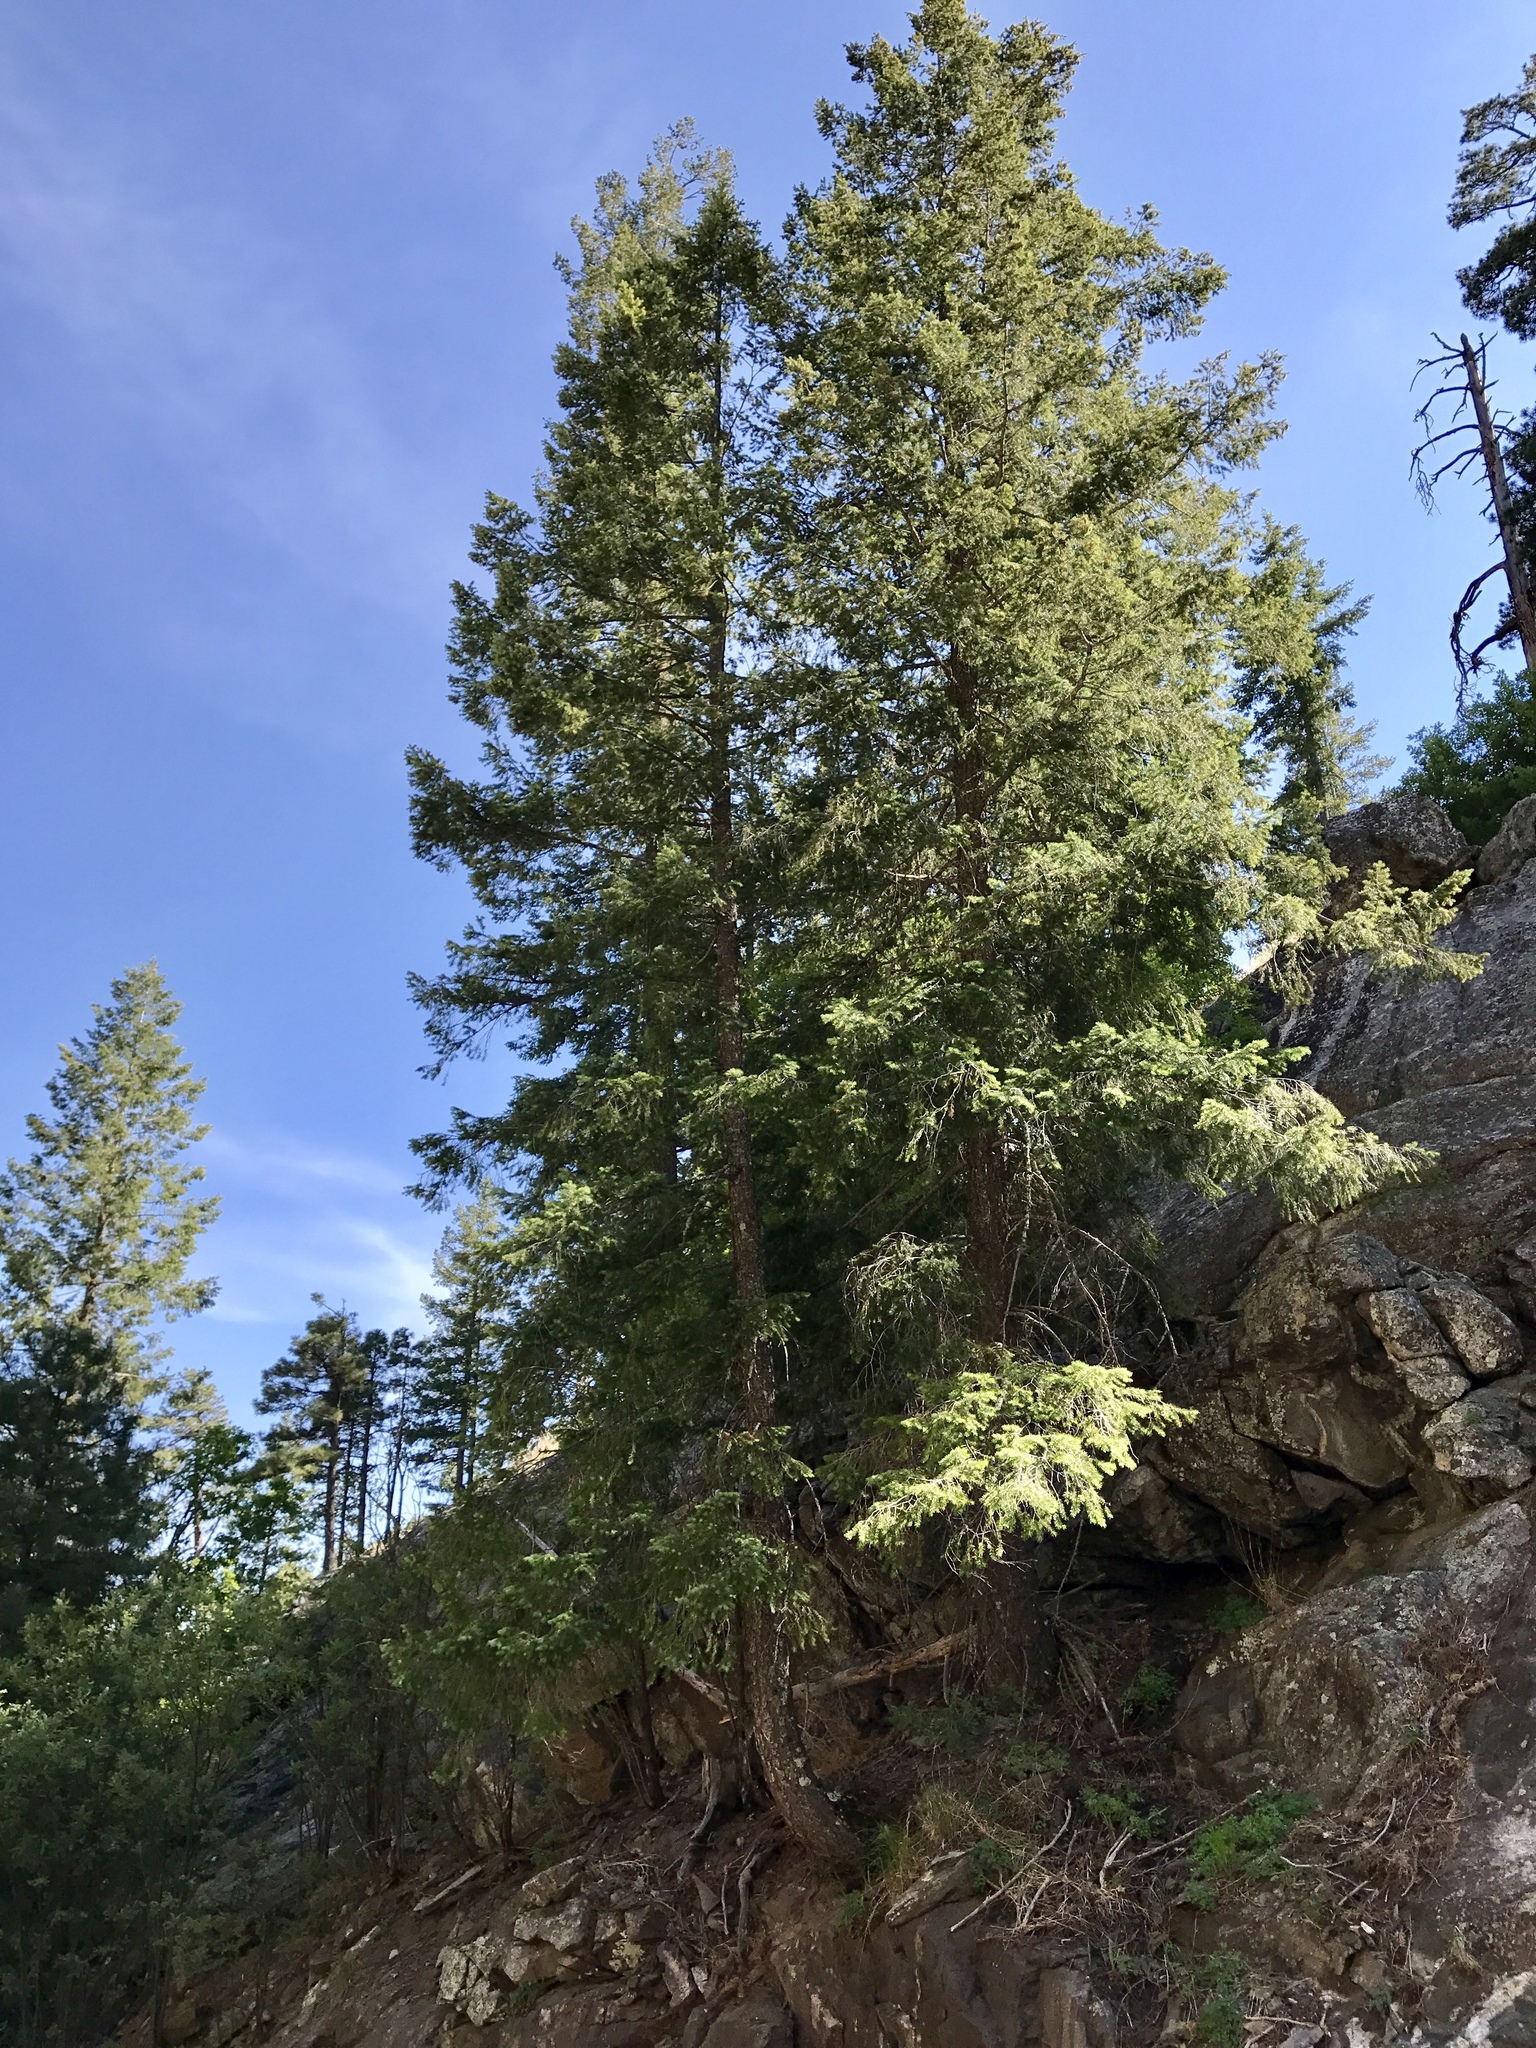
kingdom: Plantae
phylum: Tracheophyta
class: Pinopsida
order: Pinales
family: Pinaceae
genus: Pseudotsuga
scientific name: Pseudotsuga menziesii
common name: Douglas fir
